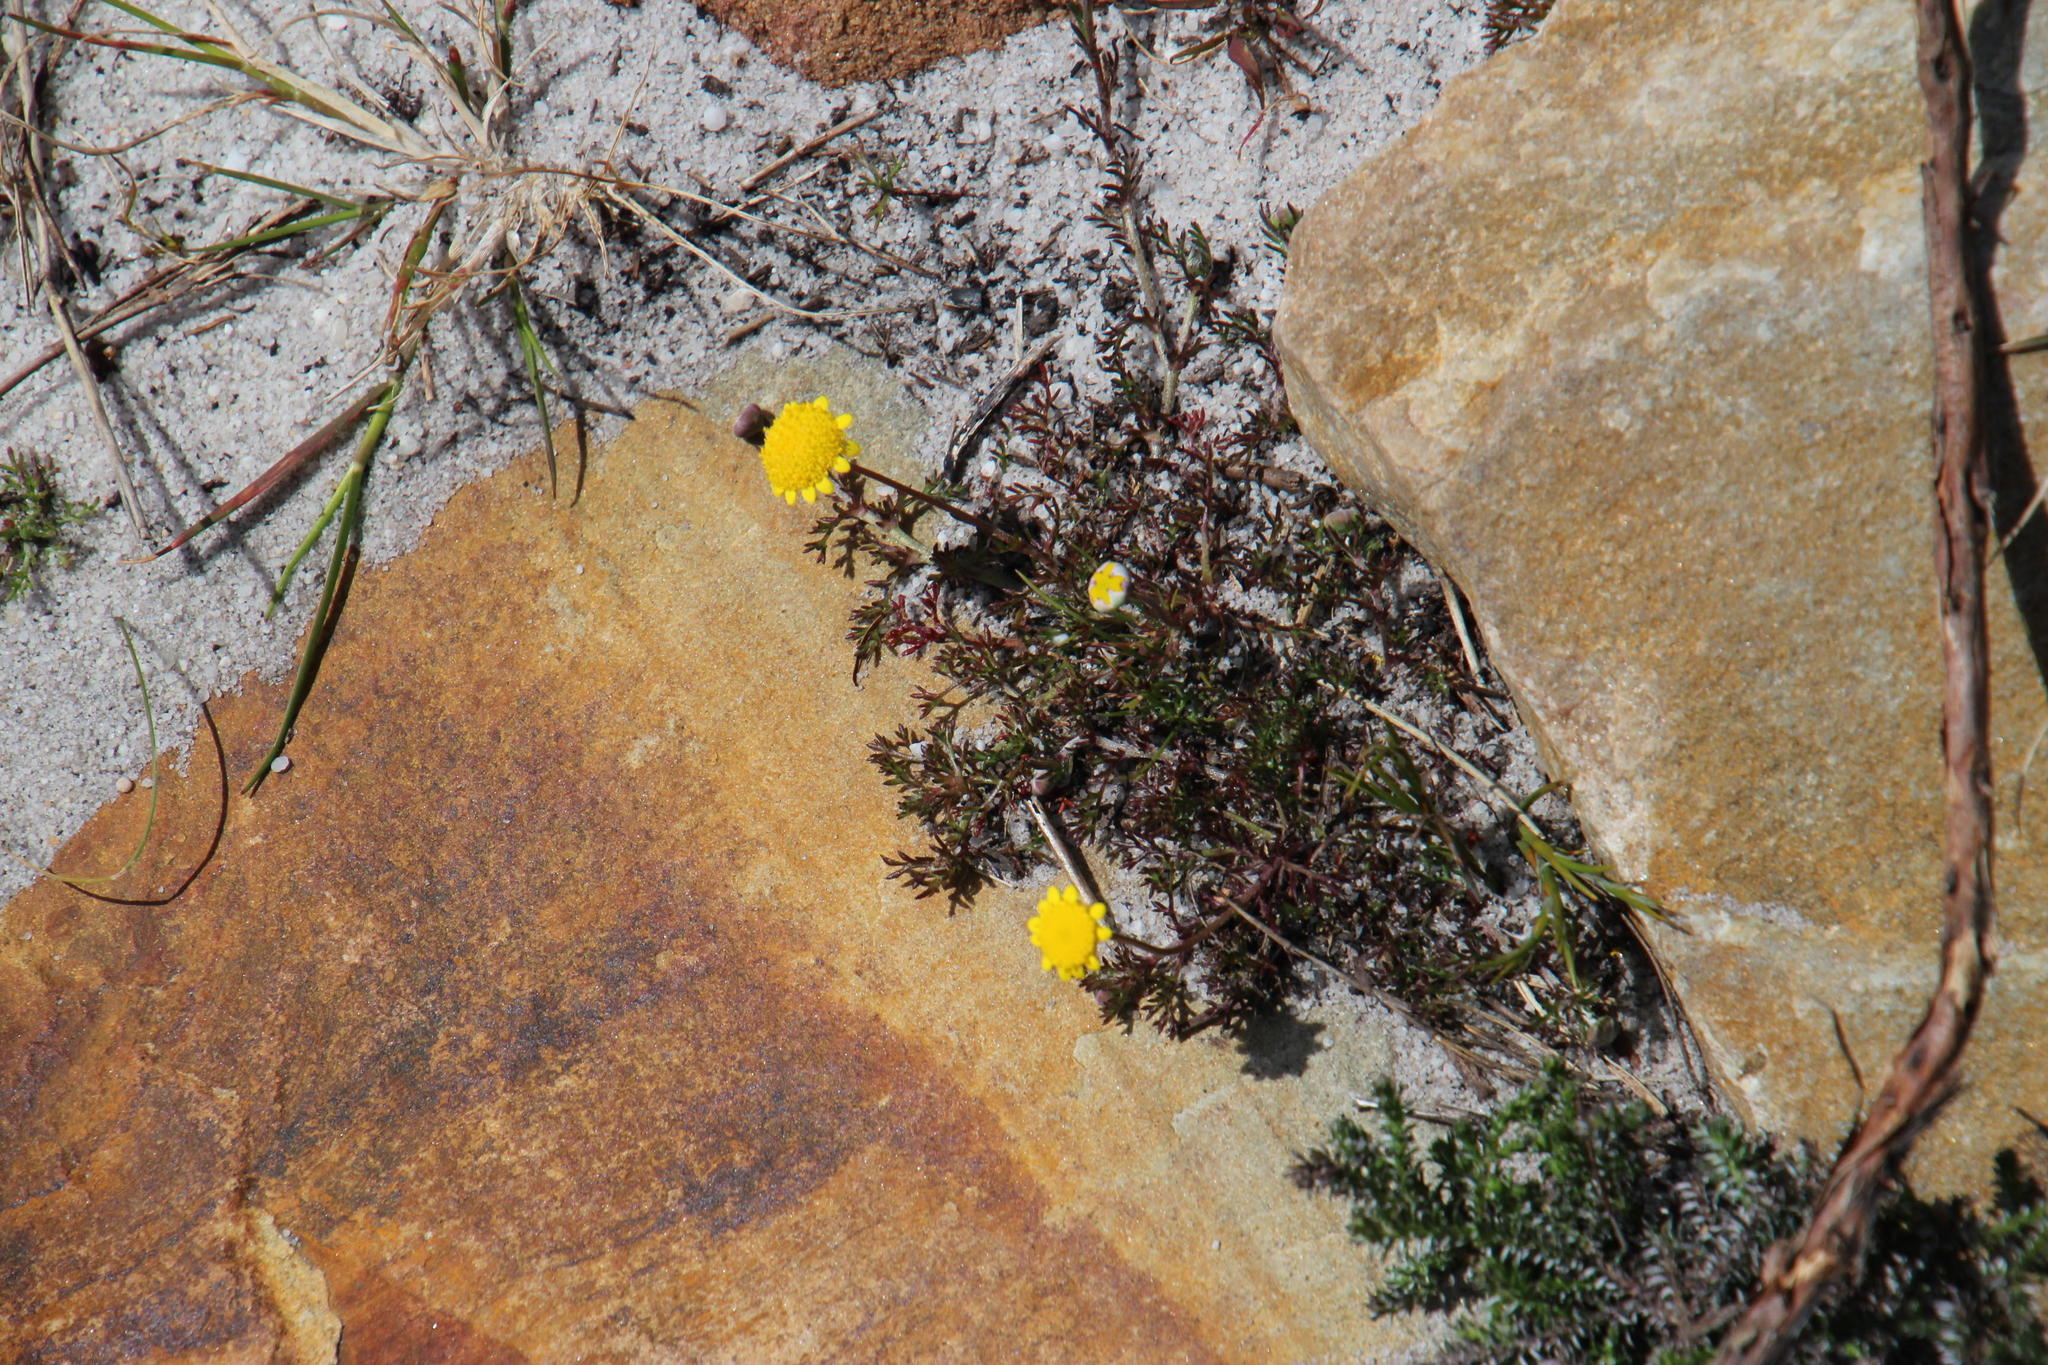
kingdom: Plantae
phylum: Tracheophyta
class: Magnoliopsida
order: Asterales
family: Asteraceae
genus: Cotula
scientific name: Cotula pruinosa
